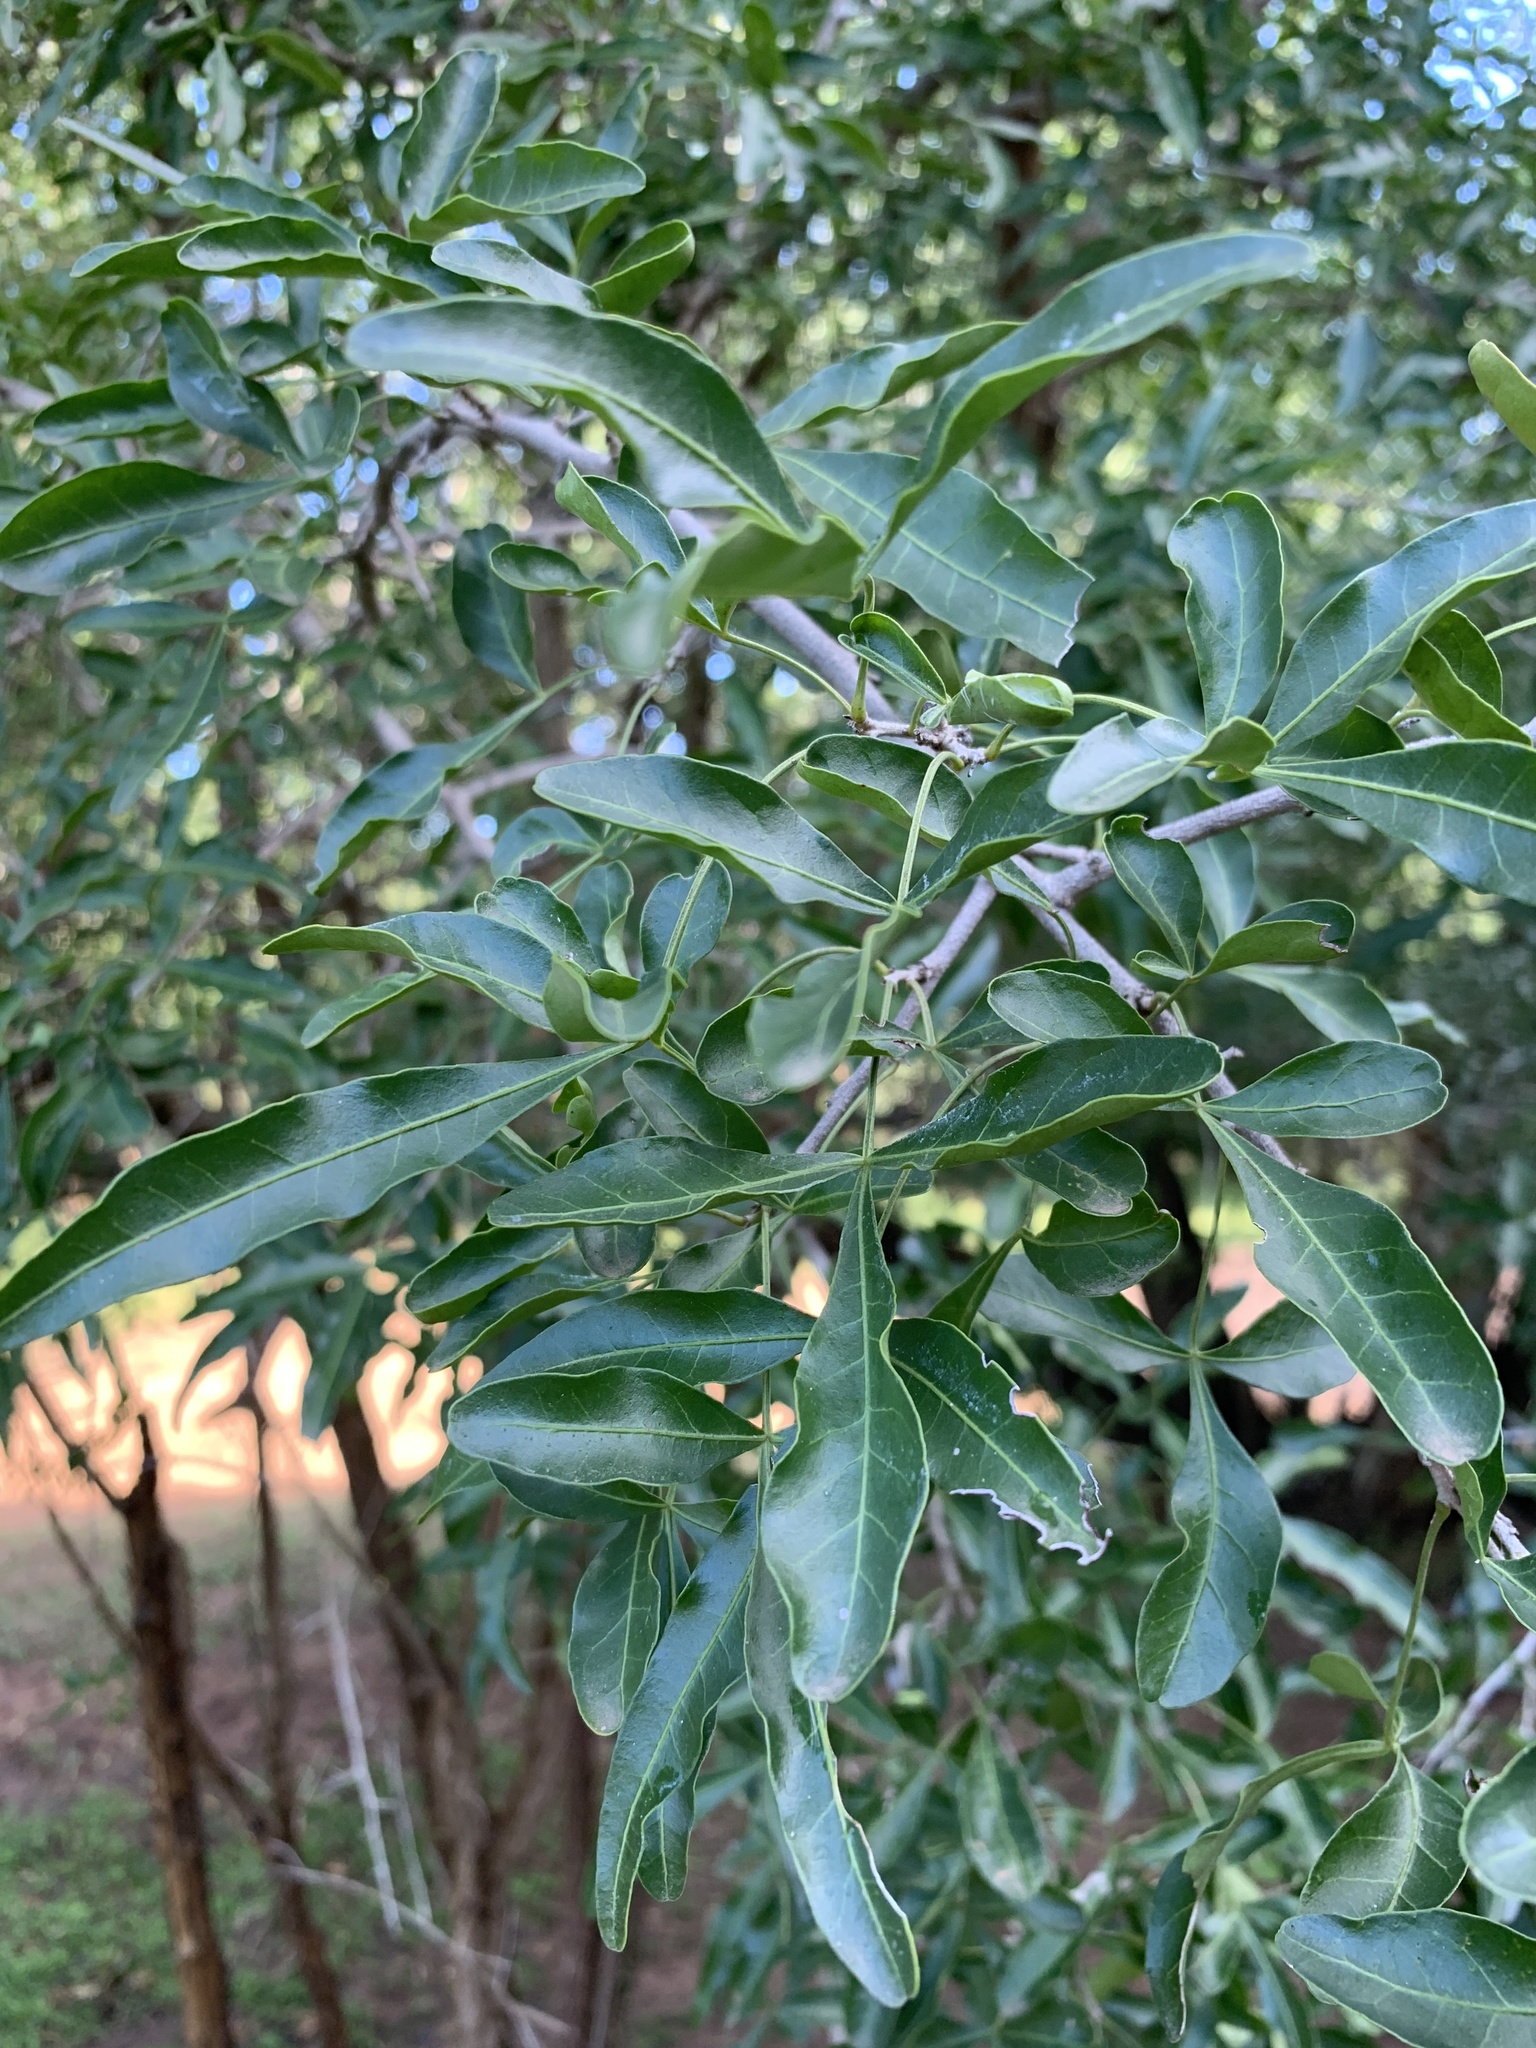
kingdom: Plantae
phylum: Tracheophyta
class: Magnoliopsida
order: Sapindales
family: Anacardiaceae
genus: Searsia
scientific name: Searsia gueinzii
